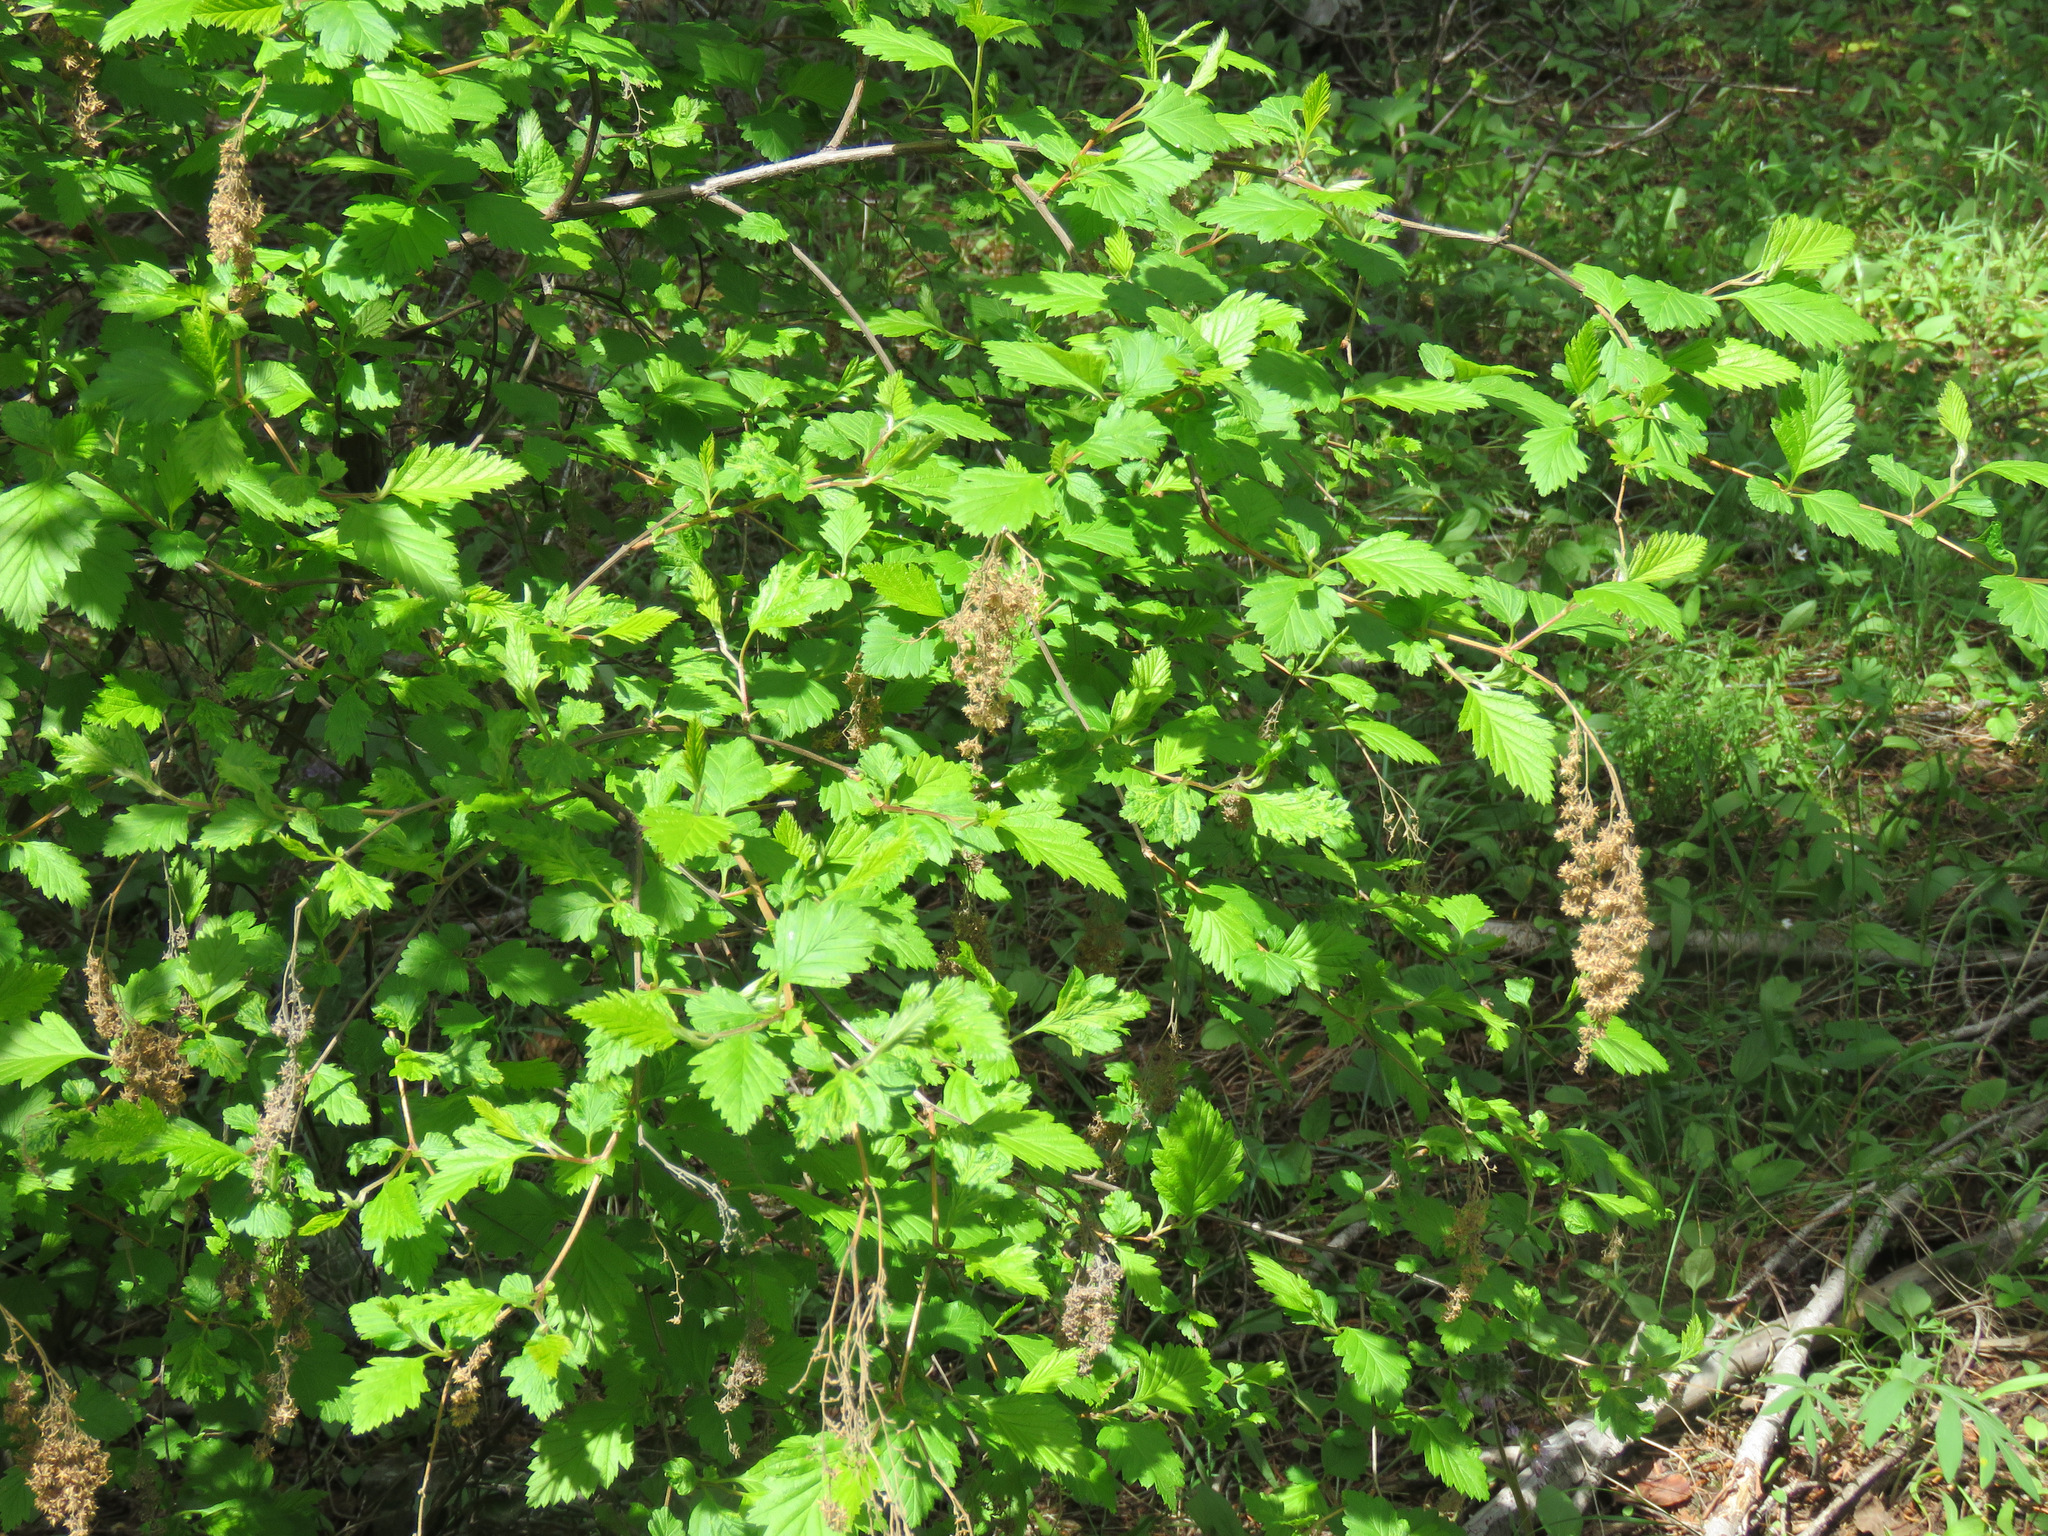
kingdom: Plantae
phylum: Tracheophyta
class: Magnoliopsida
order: Rosales
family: Rosaceae
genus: Holodiscus
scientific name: Holodiscus discolor
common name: Oceanspray
